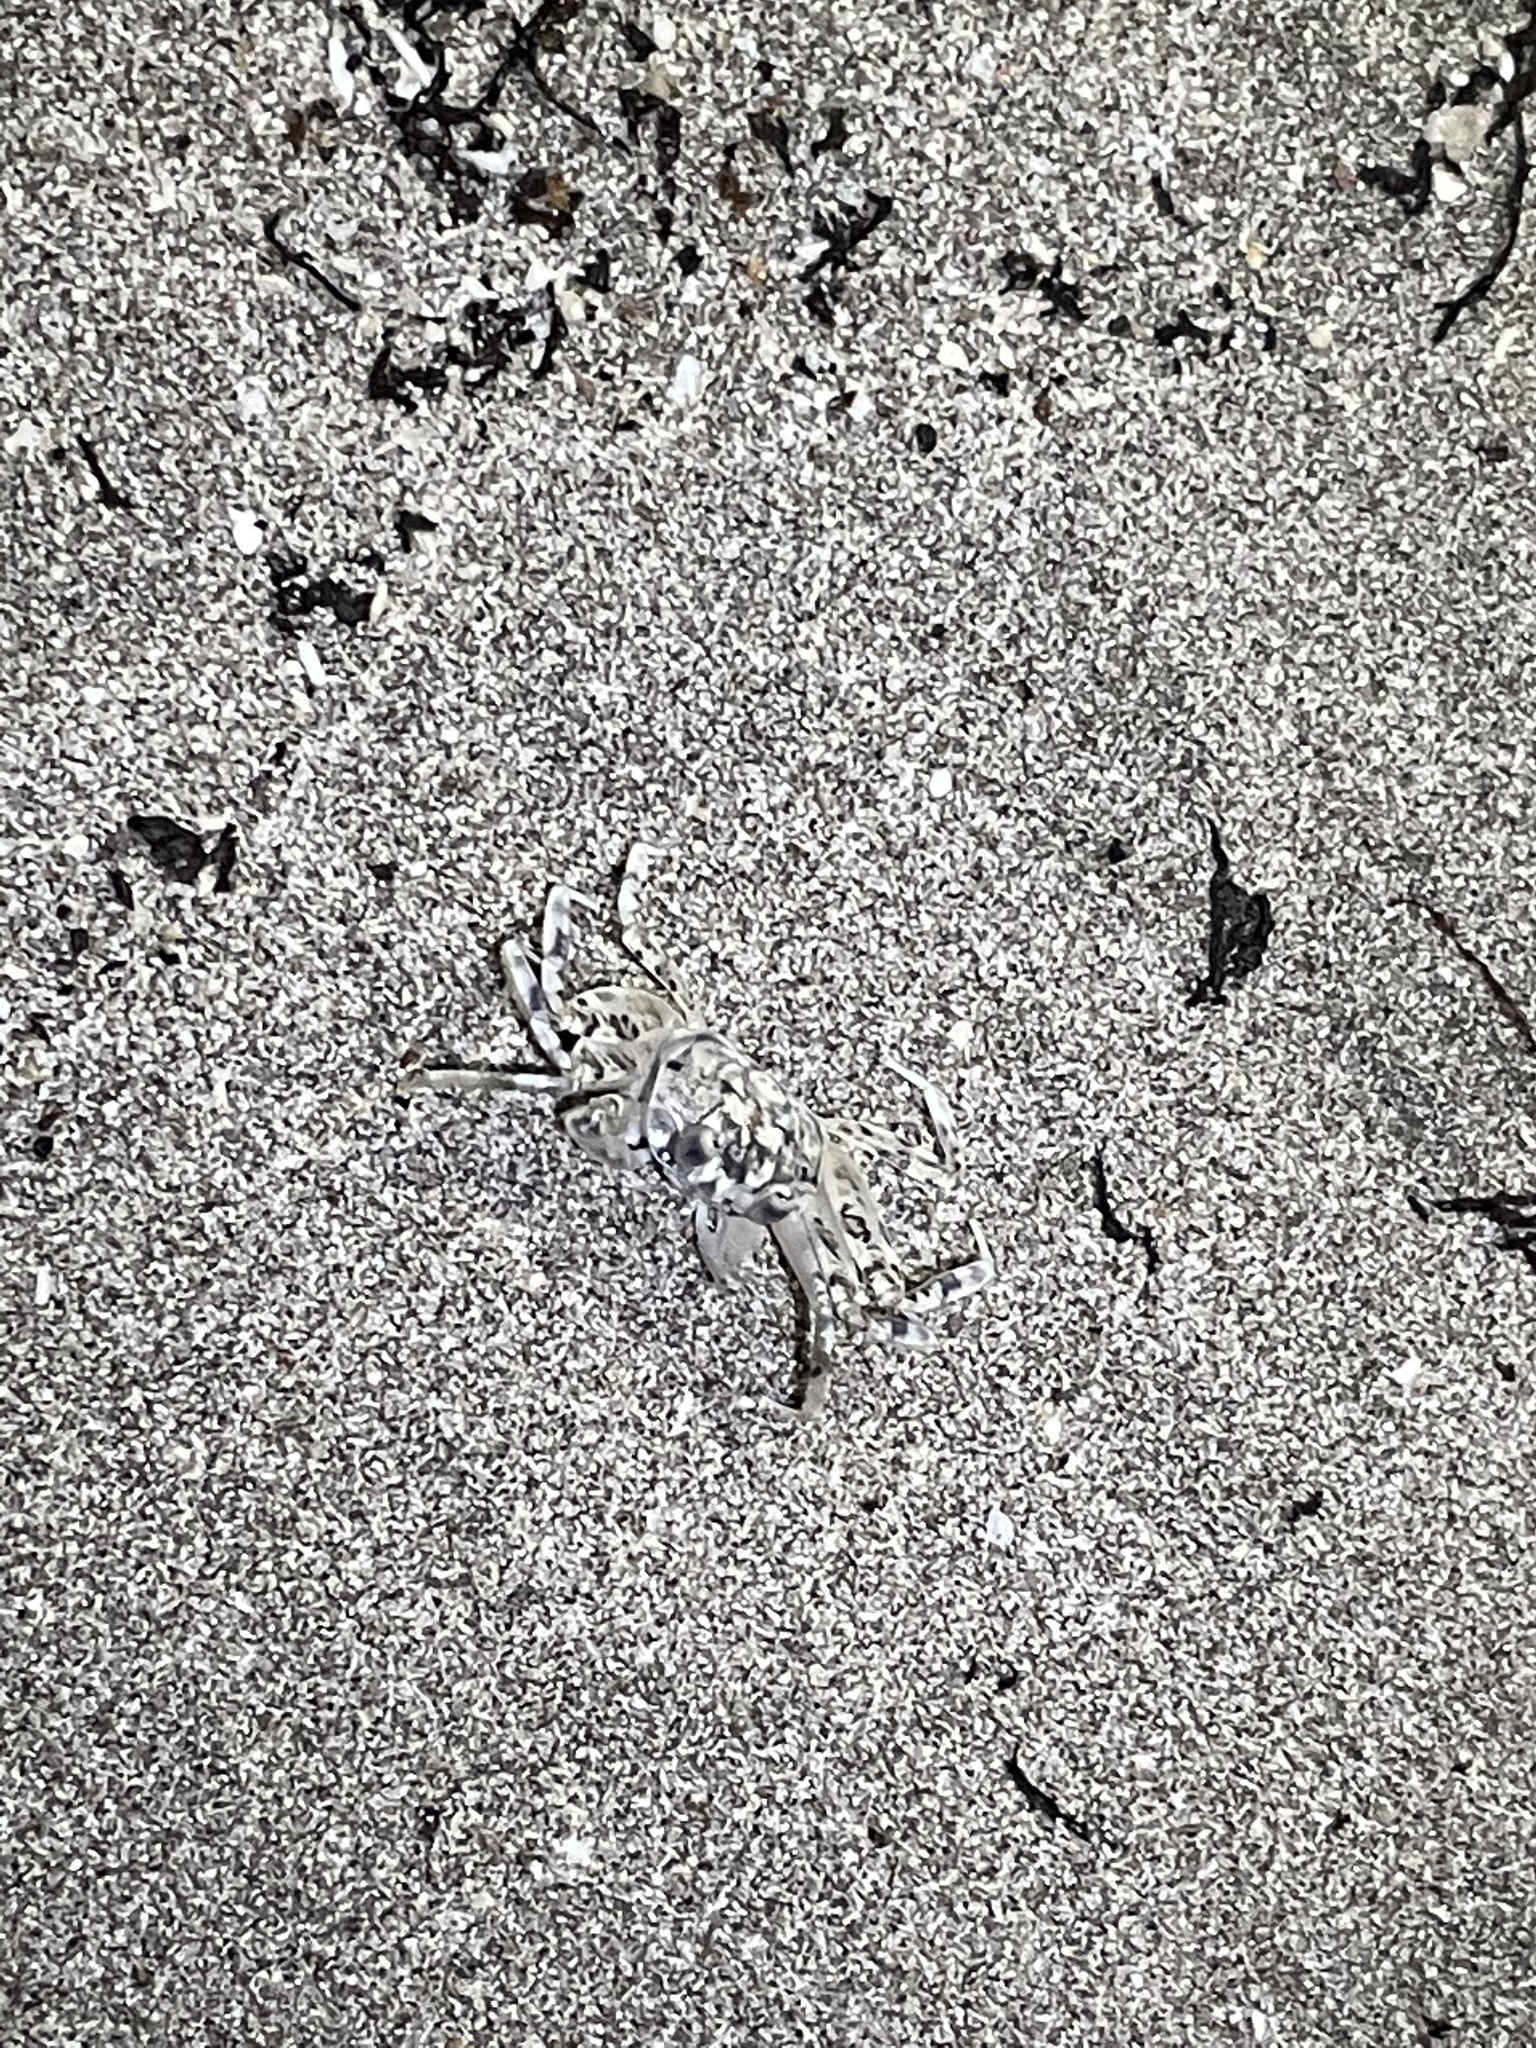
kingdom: Animalia
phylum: Arthropoda
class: Malacostraca
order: Decapoda
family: Ocypodidae
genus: Ocypode
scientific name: Ocypode occidentalis
